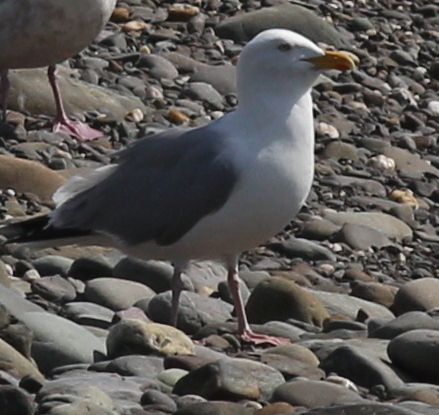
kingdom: Animalia
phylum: Chordata
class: Aves
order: Charadriiformes
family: Laridae
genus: Larus
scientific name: Larus argentatus
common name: Herring gull
